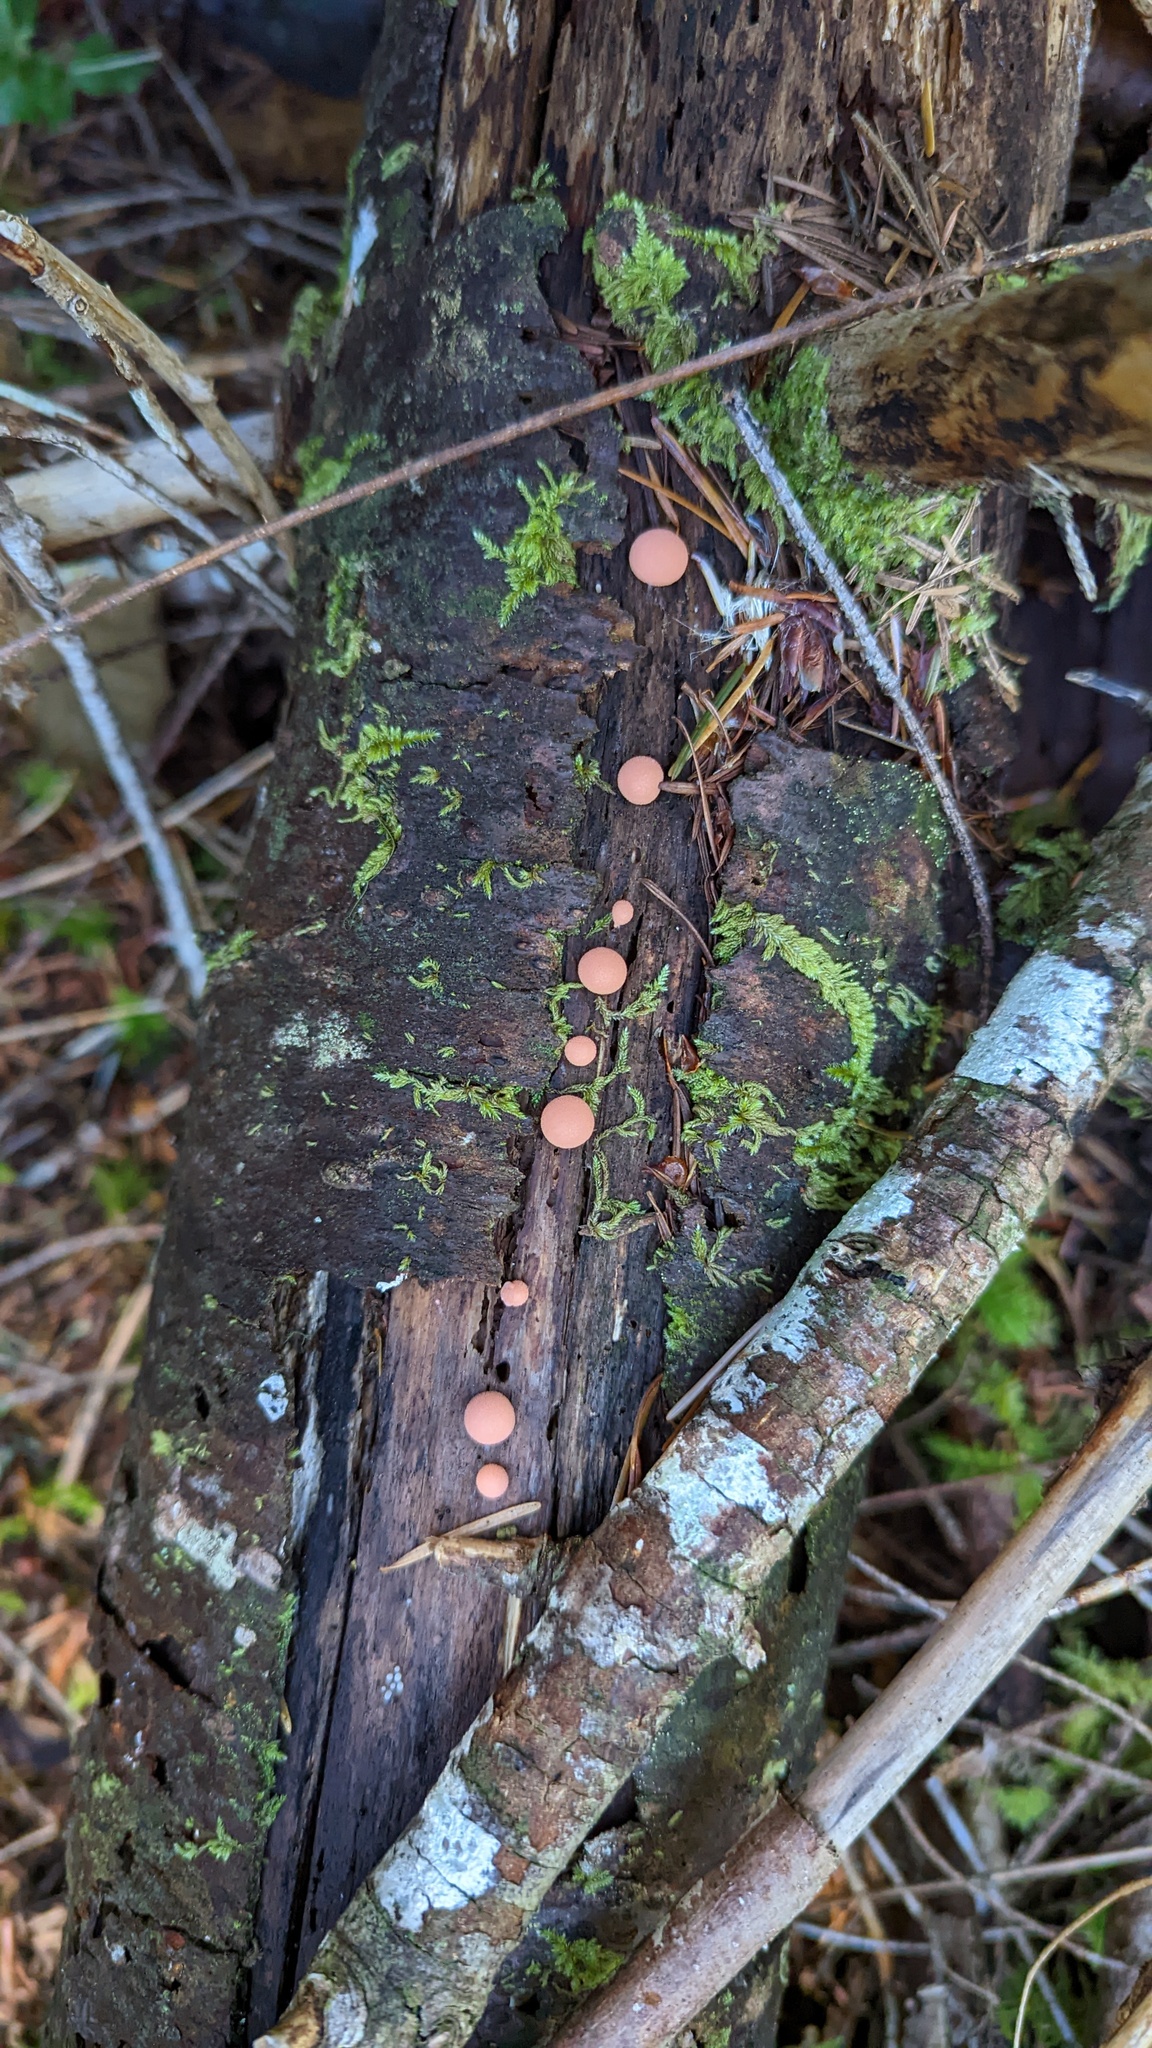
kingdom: Protozoa
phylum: Mycetozoa
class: Myxomycetes
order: Cribrariales
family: Tubiferaceae
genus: Lycogala
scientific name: Lycogala epidendrum
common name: Wolf's milk
